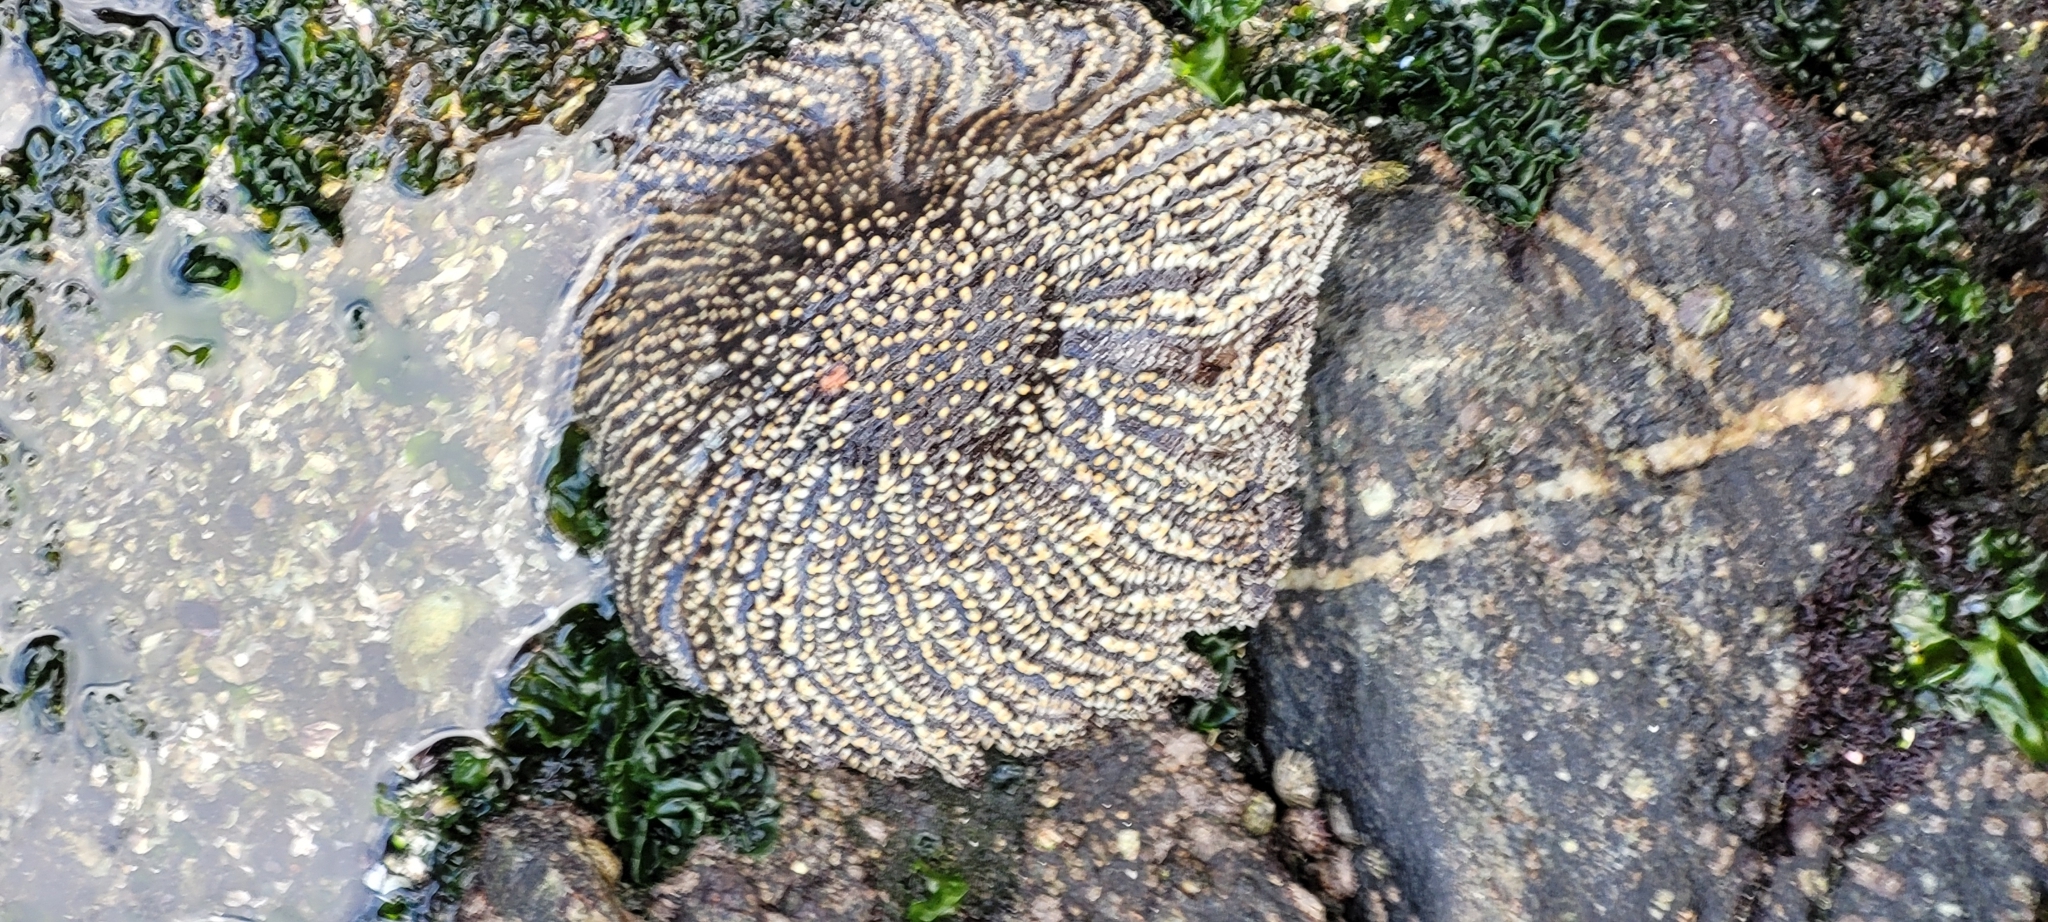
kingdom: Animalia
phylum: Echinodermata
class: Asteroidea
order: Forcipulatida
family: Heliasteridae
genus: Heliaster
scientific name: Heliaster helianthus
